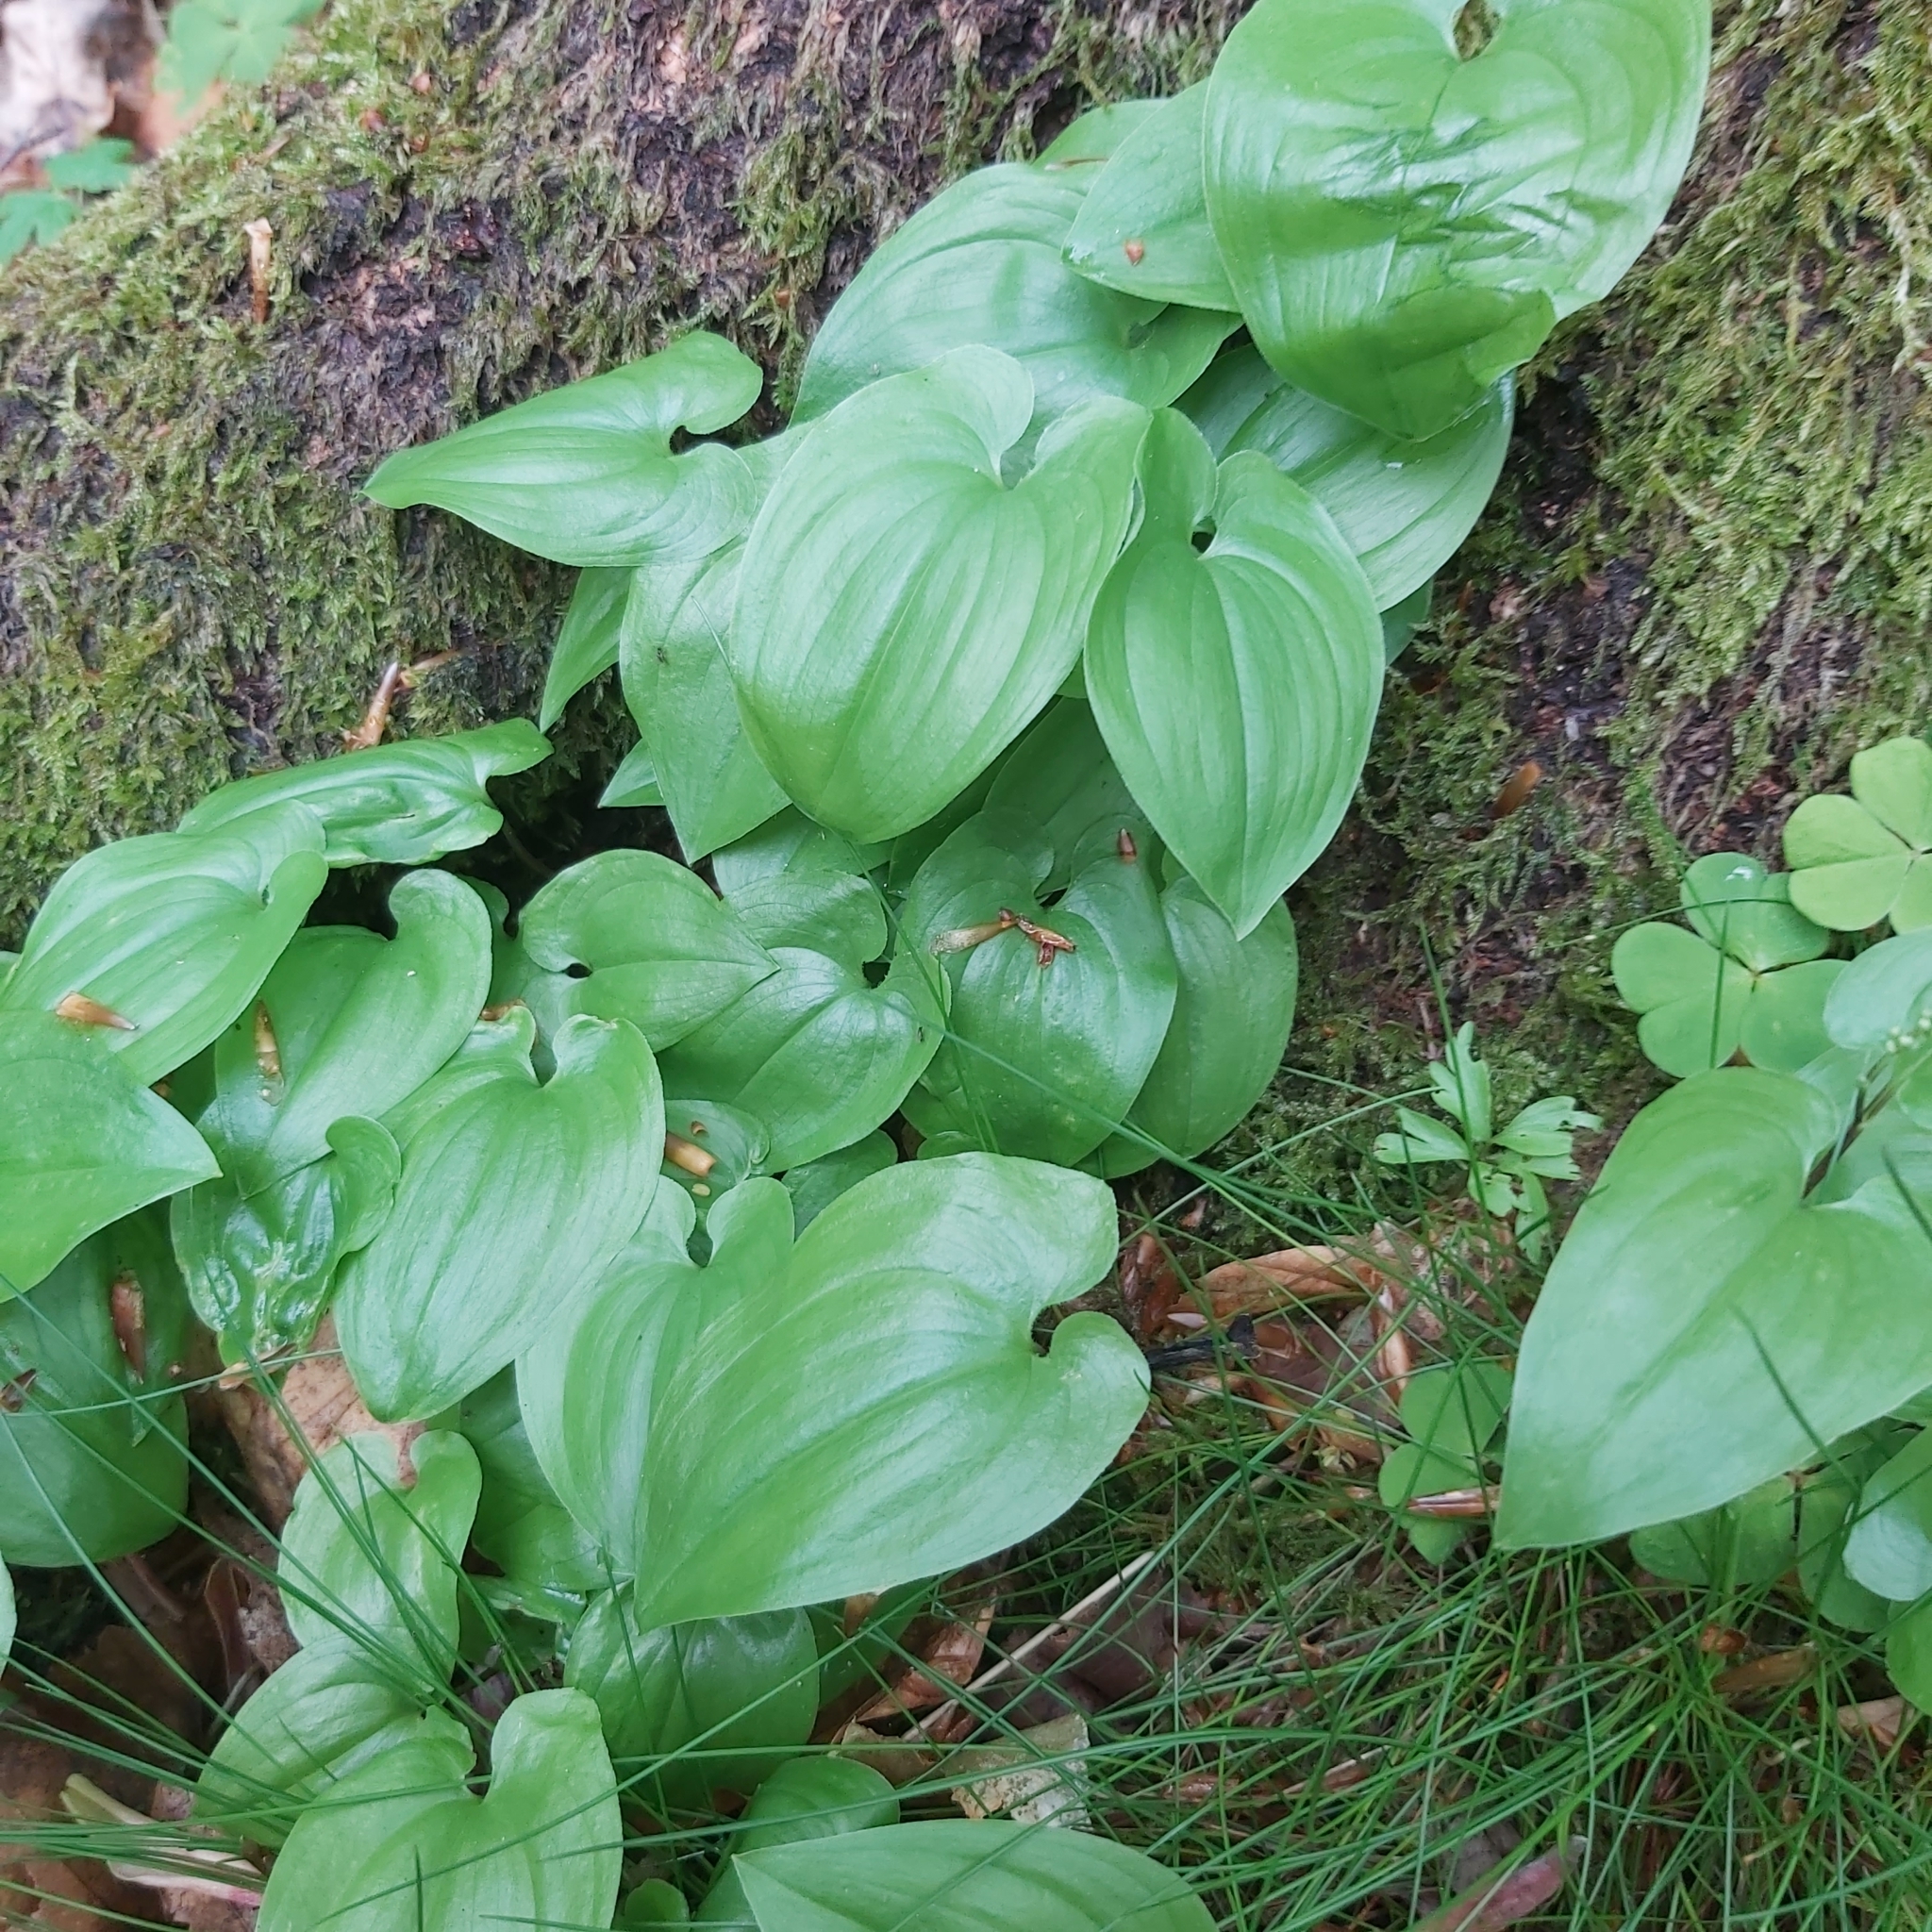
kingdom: Plantae
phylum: Tracheophyta
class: Liliopsida
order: Asparagales
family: Asparagaceae
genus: Maianthemum
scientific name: Maianthemum bifolium
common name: May lily
